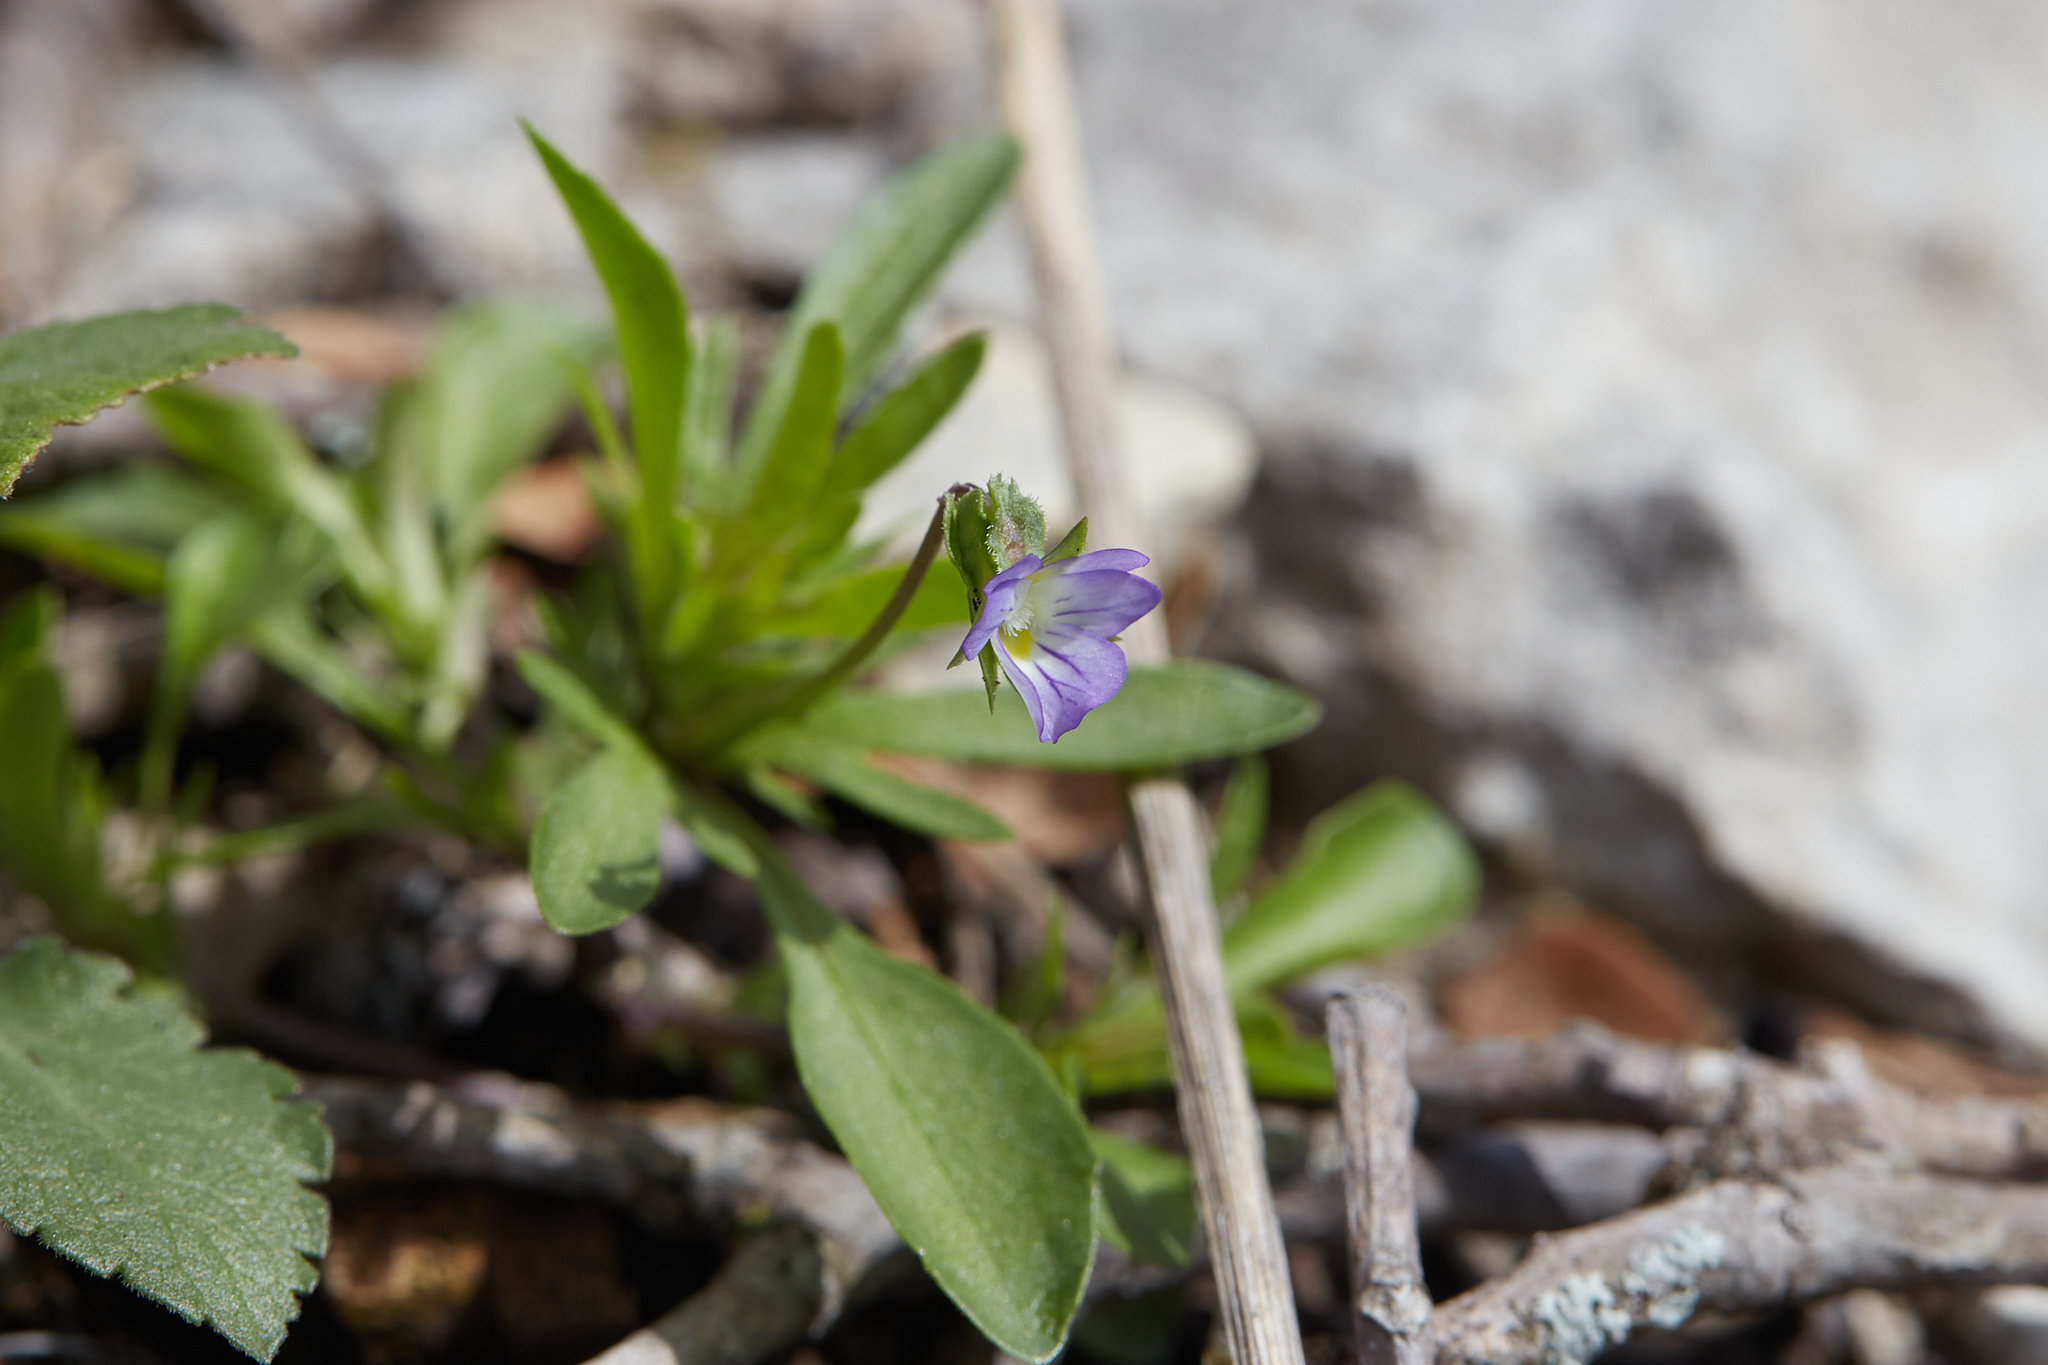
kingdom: Plantae
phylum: Tracheophyta
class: Magnoliopsida
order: Malpighiales
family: Violaceae
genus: Viola
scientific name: Viola rafinesquei
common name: American field pansy
